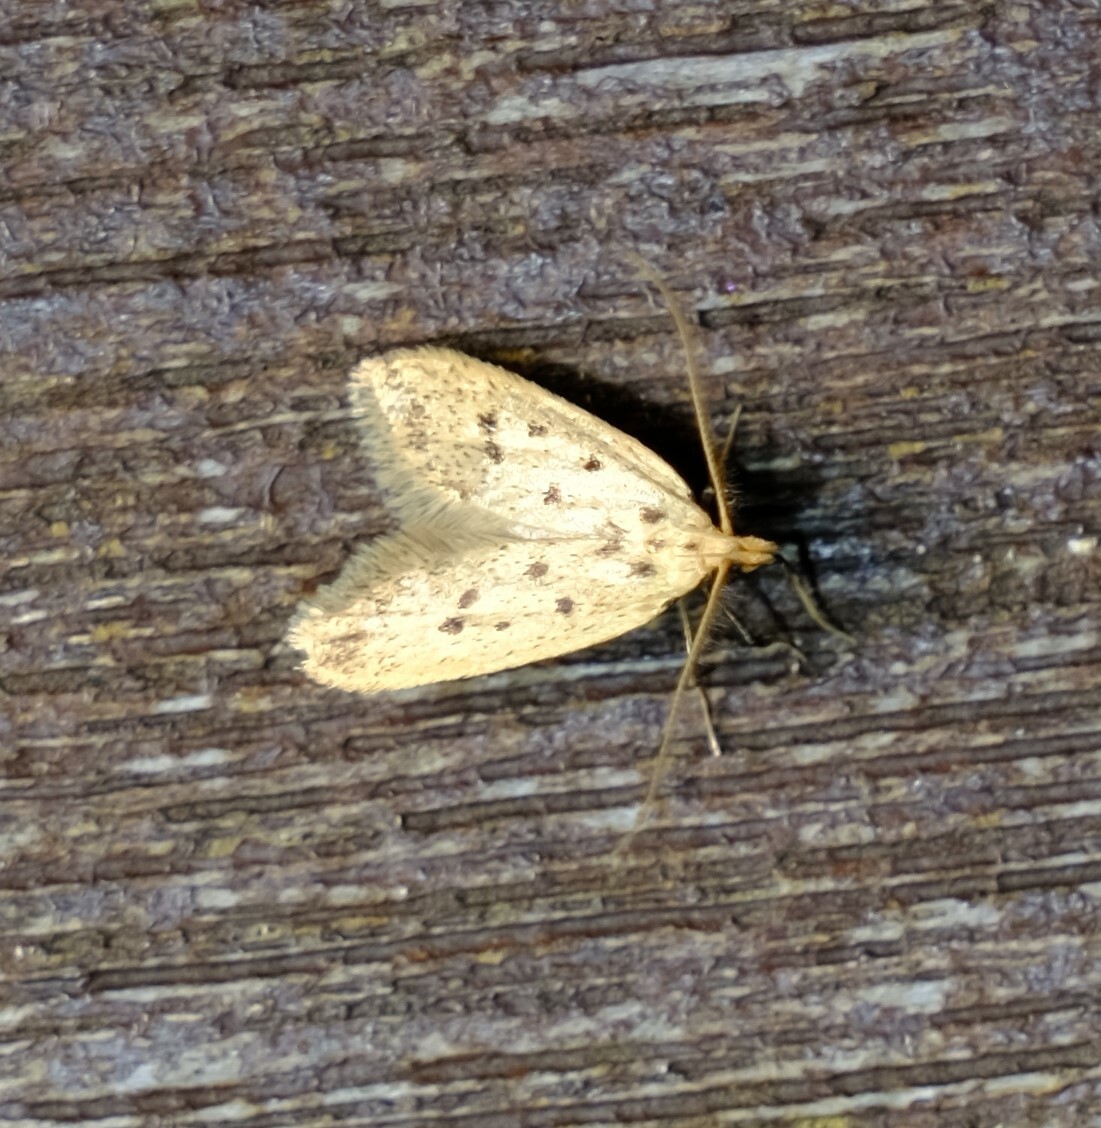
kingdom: Animalia
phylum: Arthropoda
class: Insecta
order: Lepidoptera
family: Oecophoridae
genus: Atheropla
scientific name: Atheropla psammodes
